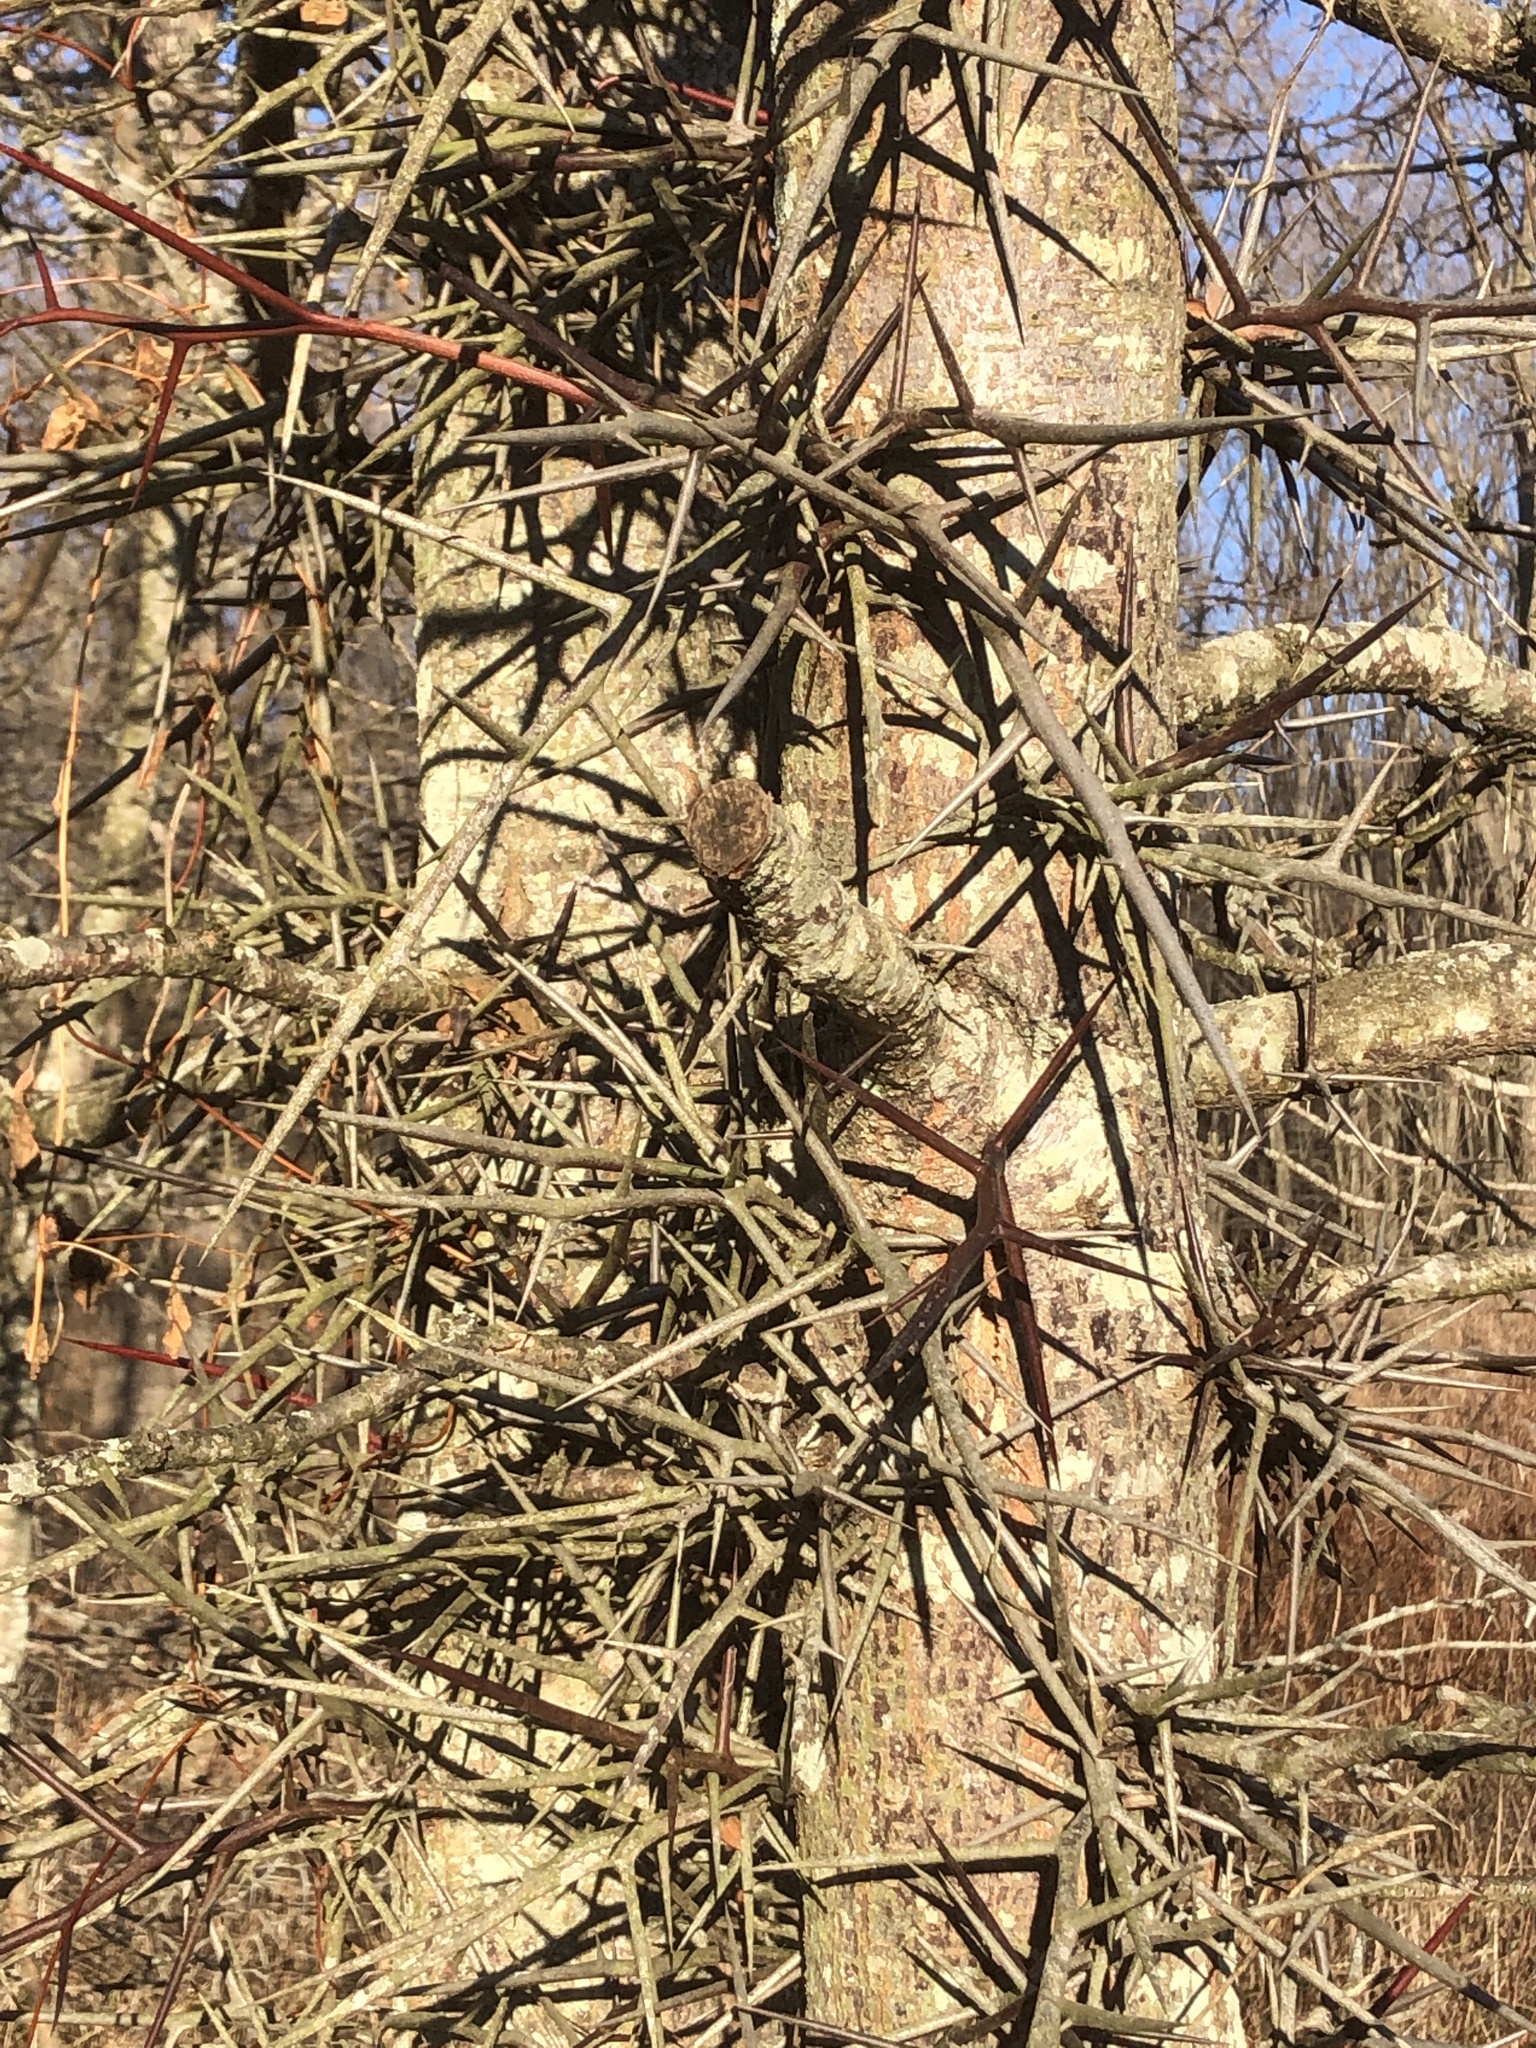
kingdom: Plantae
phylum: Tracheophyta
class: Magnoliopsida
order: Fabales
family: Fabaceae
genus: Gleditsia
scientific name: Gleditsia triacanthos
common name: Common honeylocust
